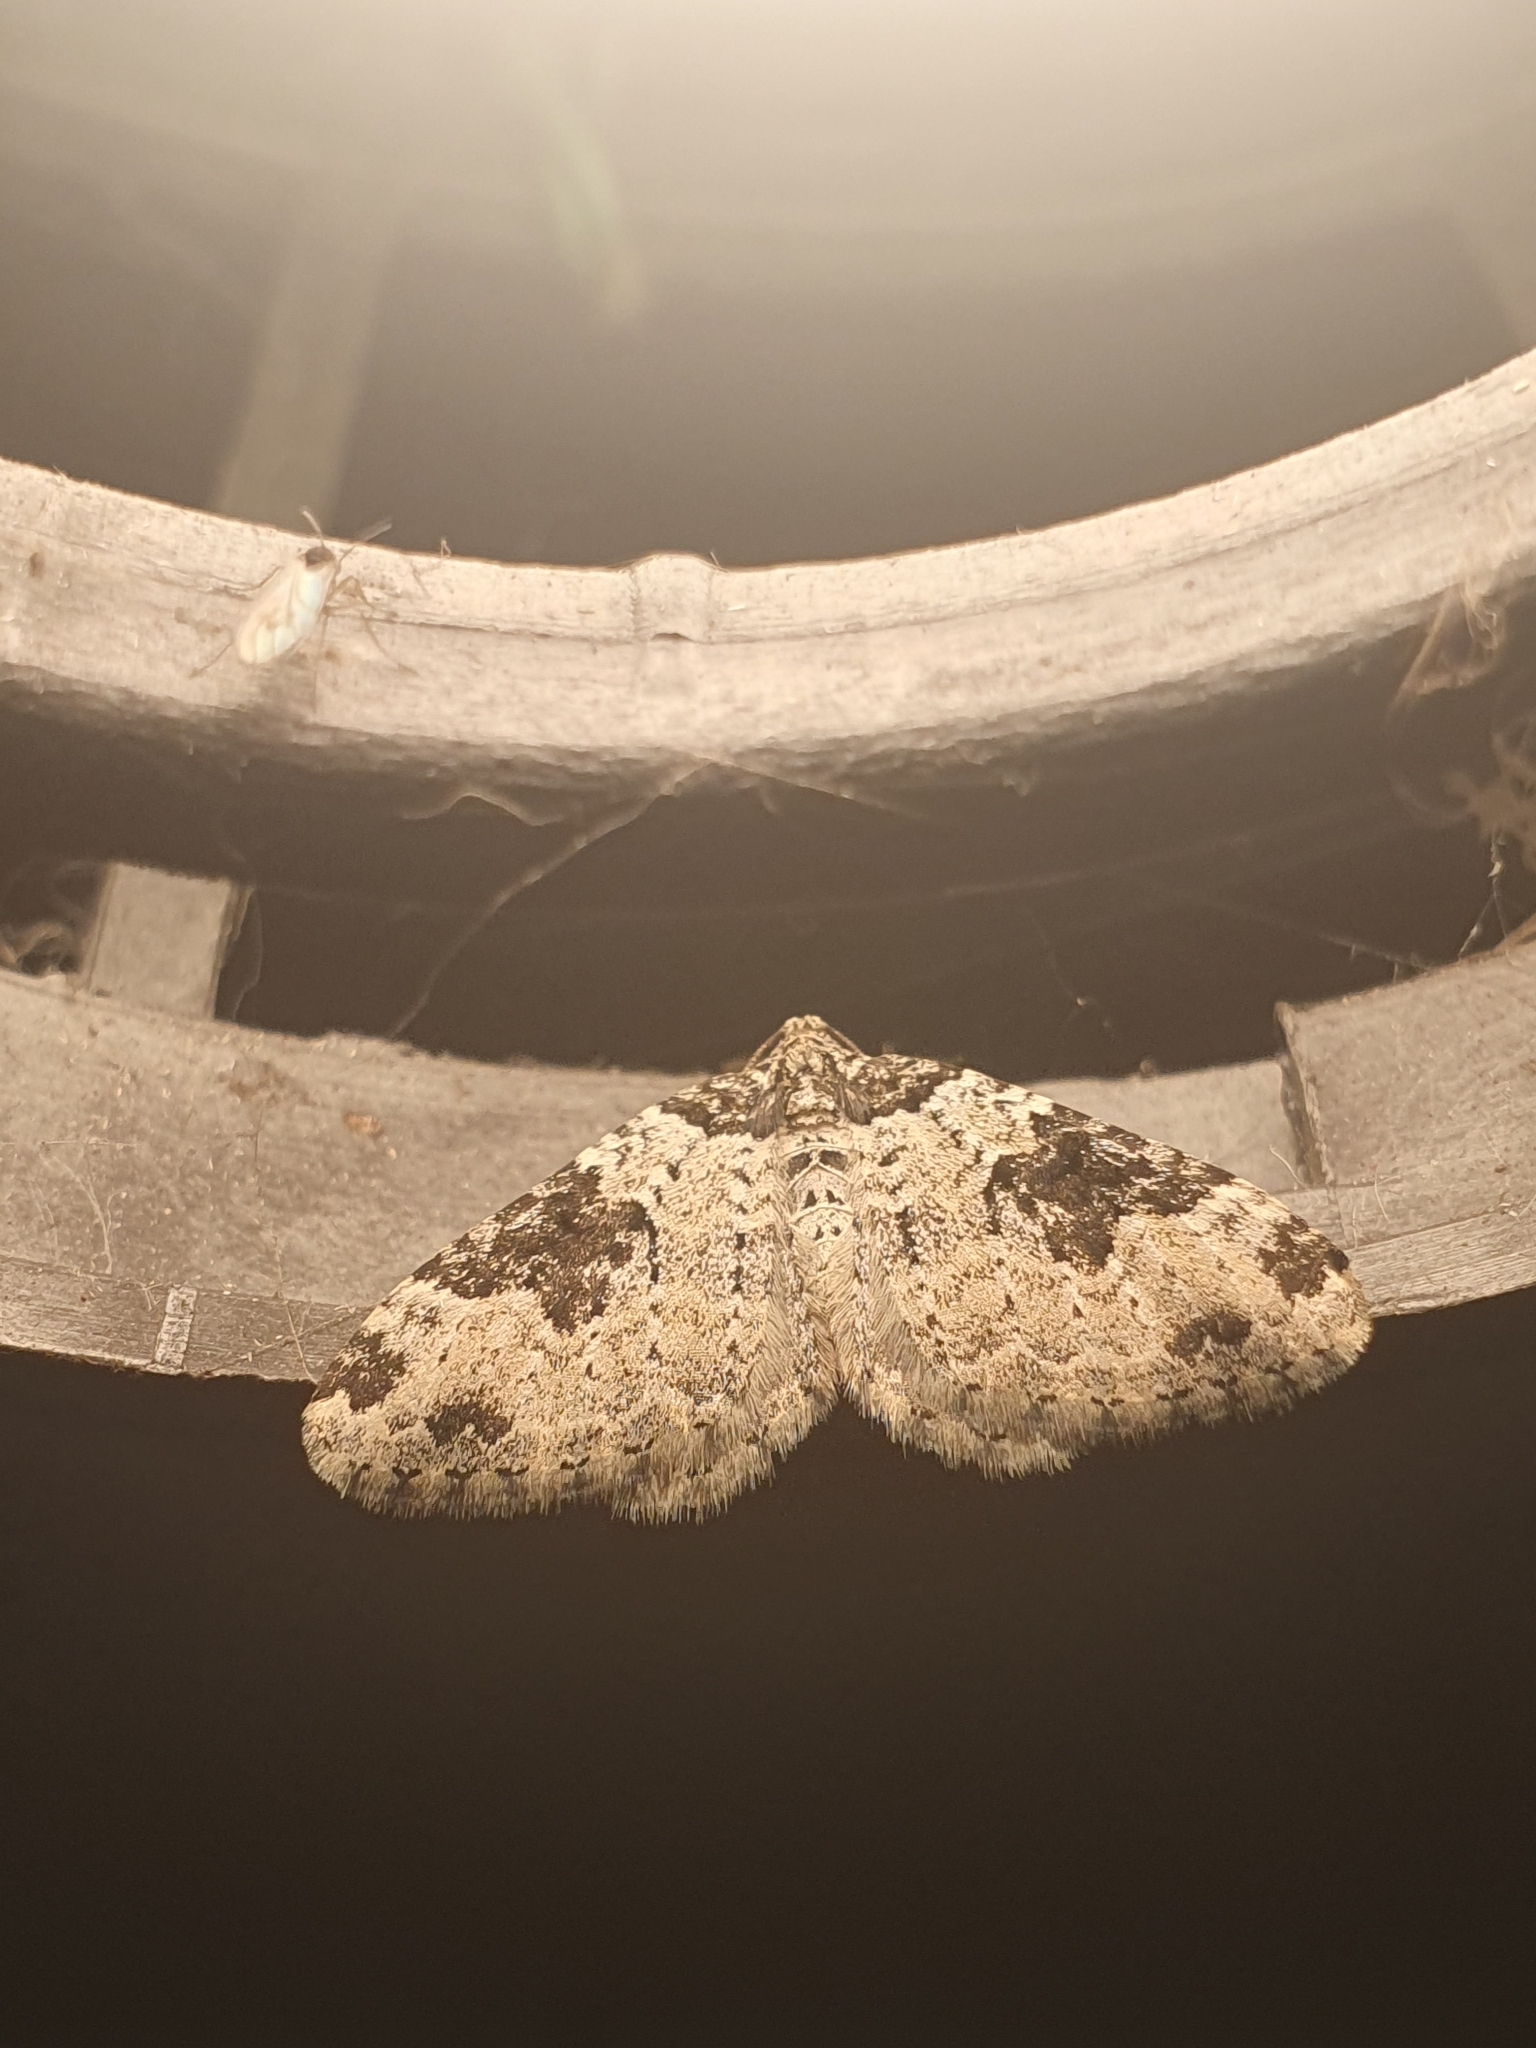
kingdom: Animalia
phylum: Arthropoda
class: Insecta
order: Lepidoptera
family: Geometridae
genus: Xanthorhoe
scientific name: Xanthorhoe fluctuata
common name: Garden carpet
